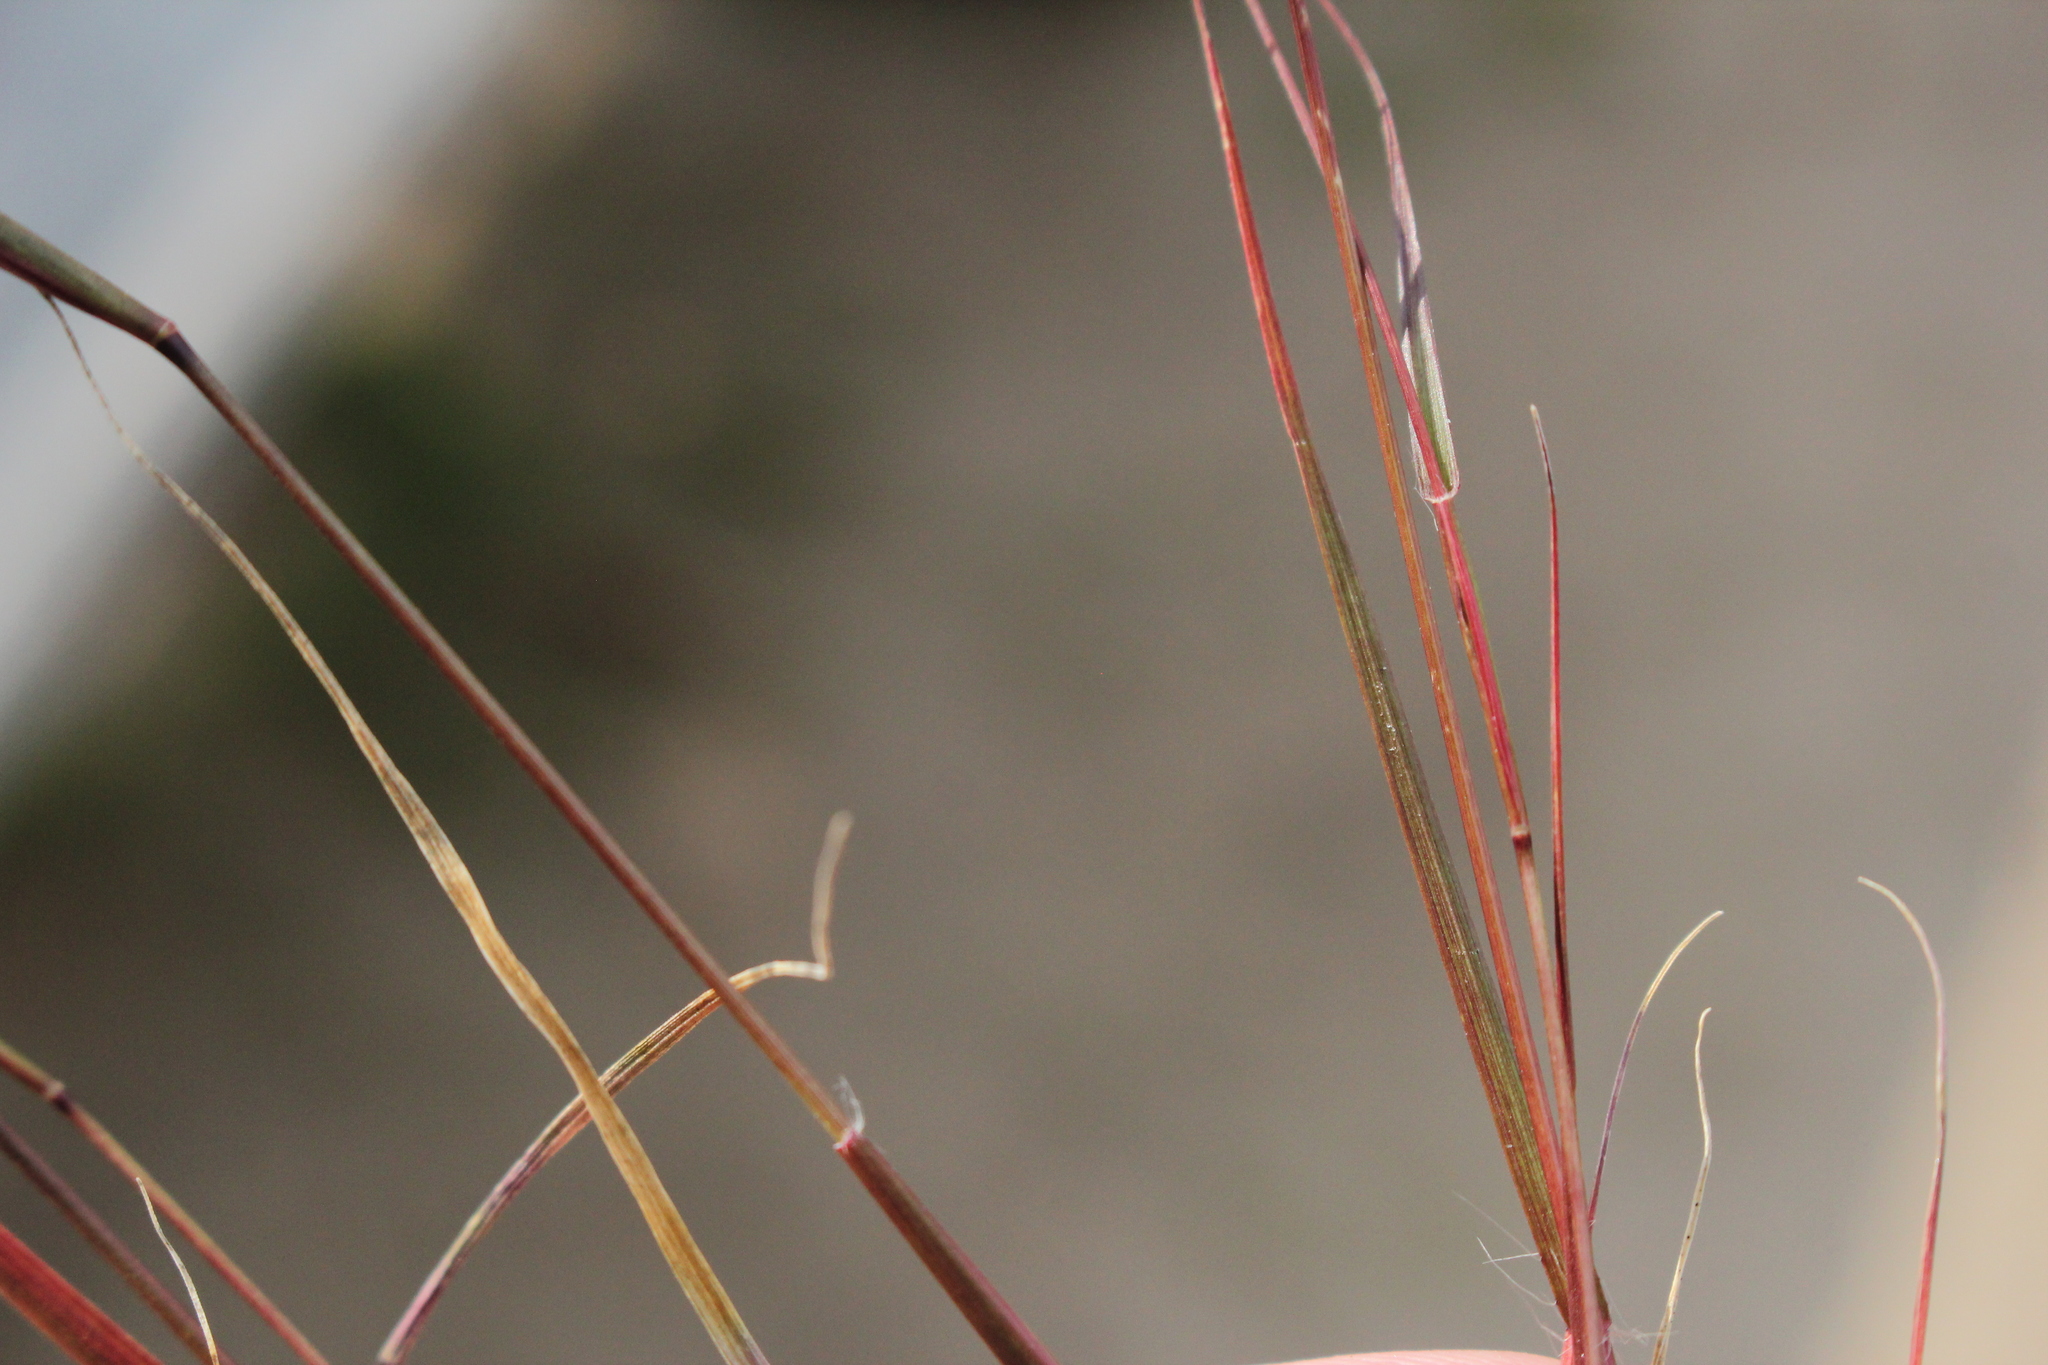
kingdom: Plantae
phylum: Tracheophyta
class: Liliopsida
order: Poales
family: Poaceae
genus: Sporobolus
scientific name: Sporobolus vaginiflorus
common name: Poverty dropseed
